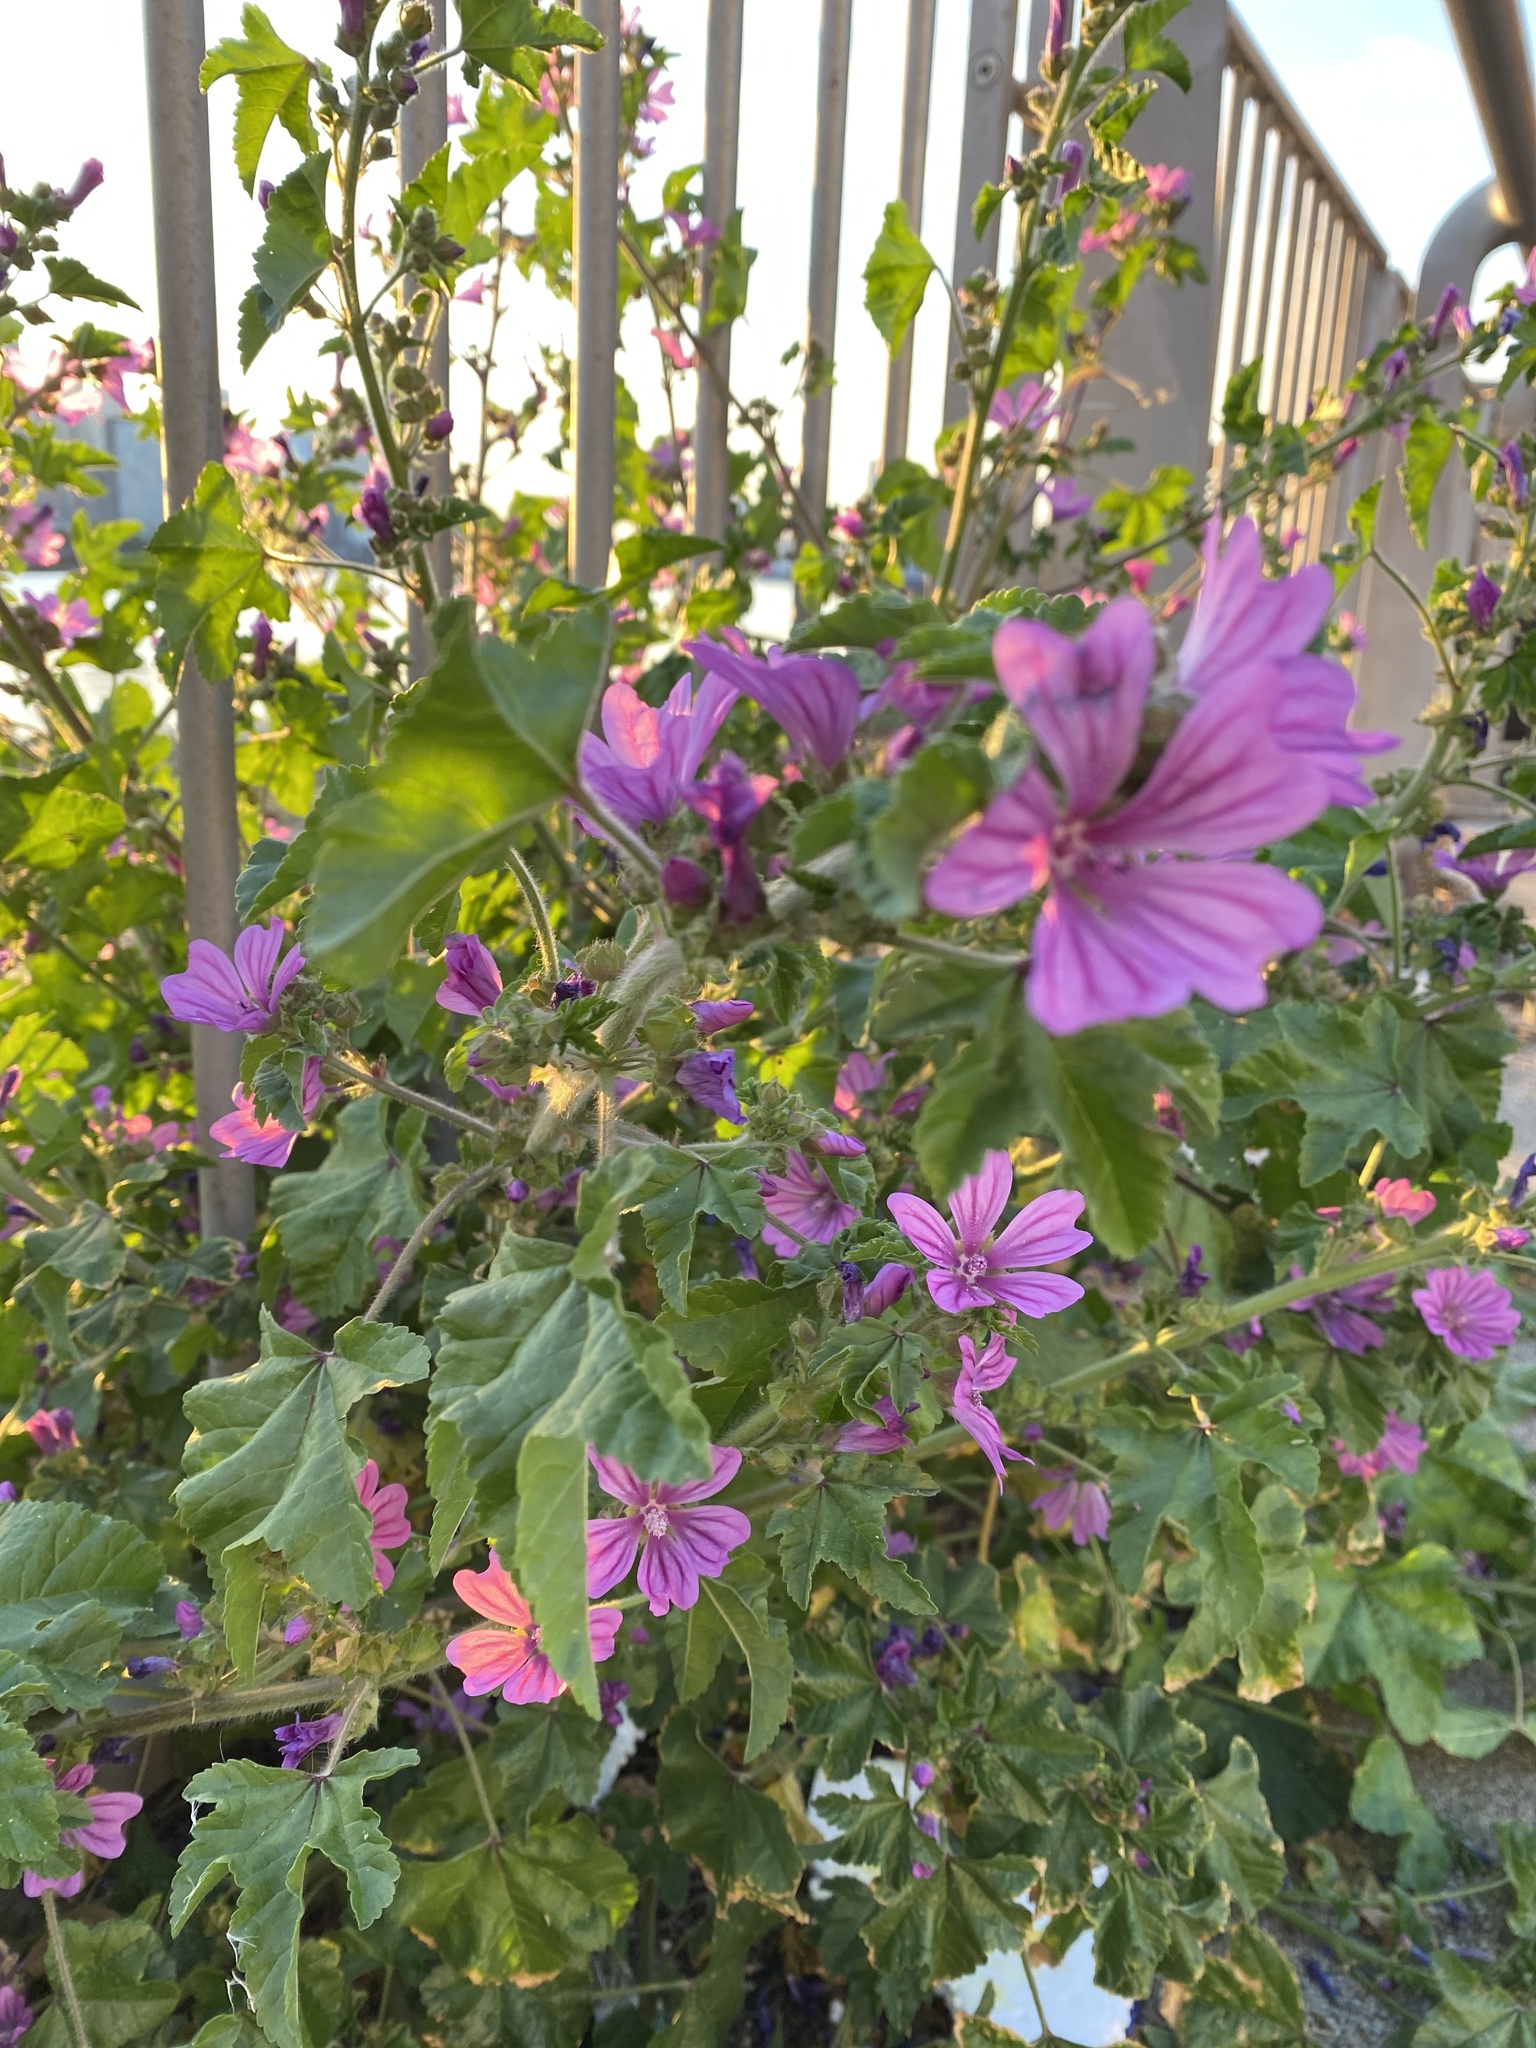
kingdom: Plantae
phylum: Tracheophyta
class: Magnoliopsida
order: Malvales
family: Malvaceae
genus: Malva
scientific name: Malva sylvestris
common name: Common mallow
